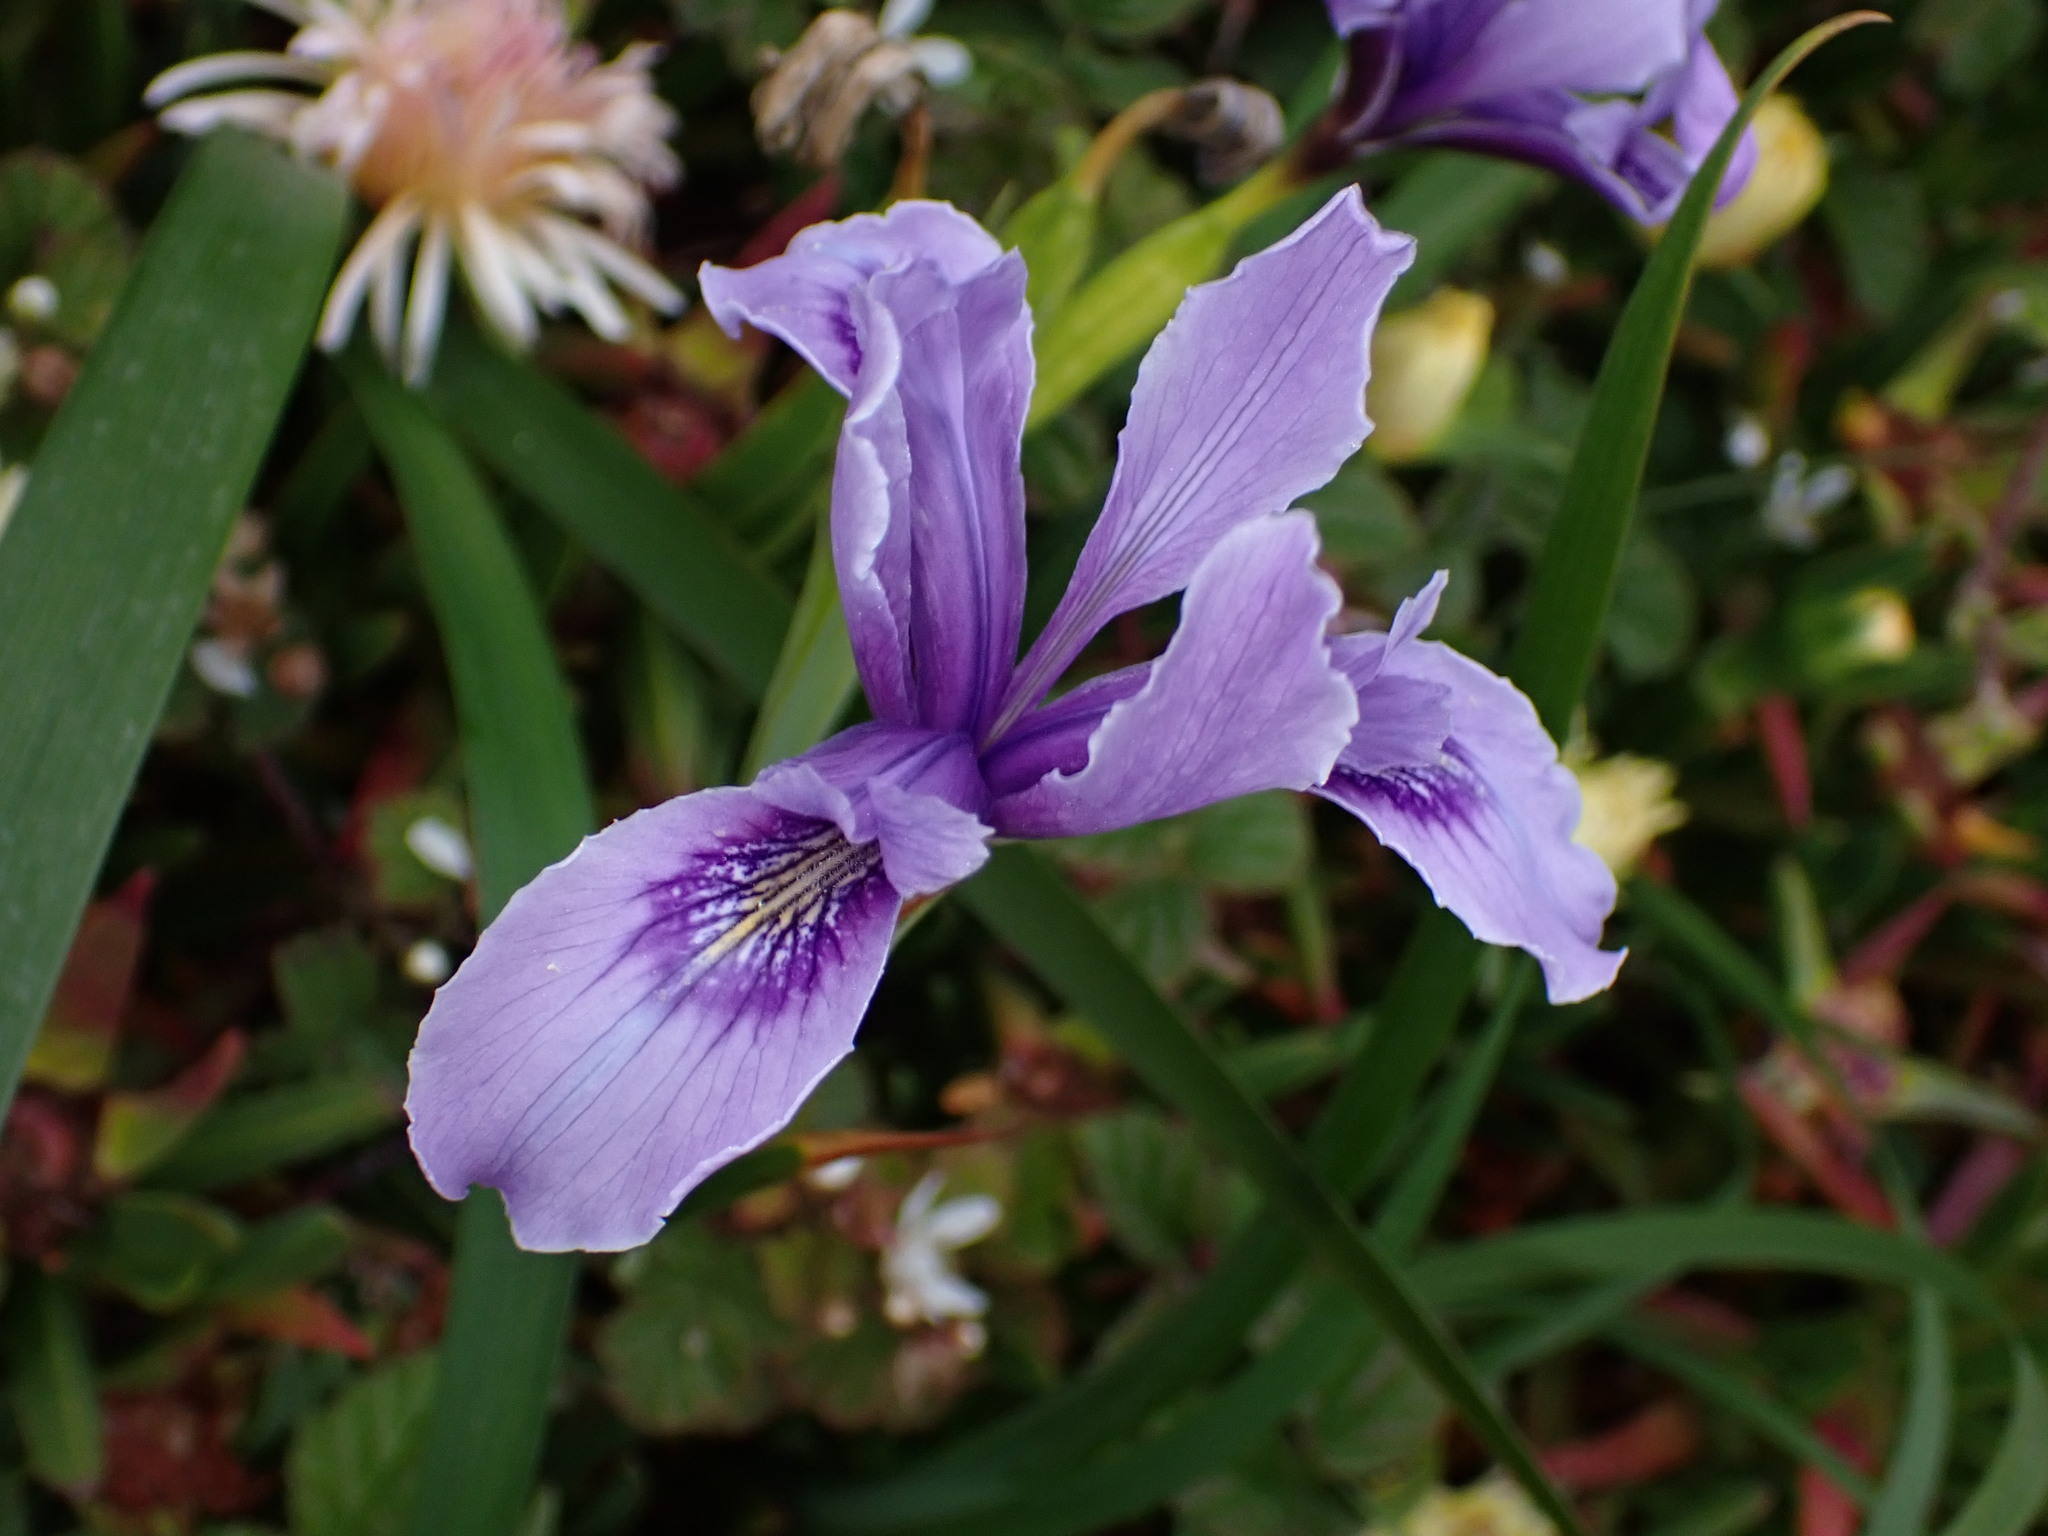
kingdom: Plantae
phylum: Tracheophyta
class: Liliopsida
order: Asparagales
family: Iridaceae
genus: Iris
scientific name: Iris douglasiana
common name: Marin iris
